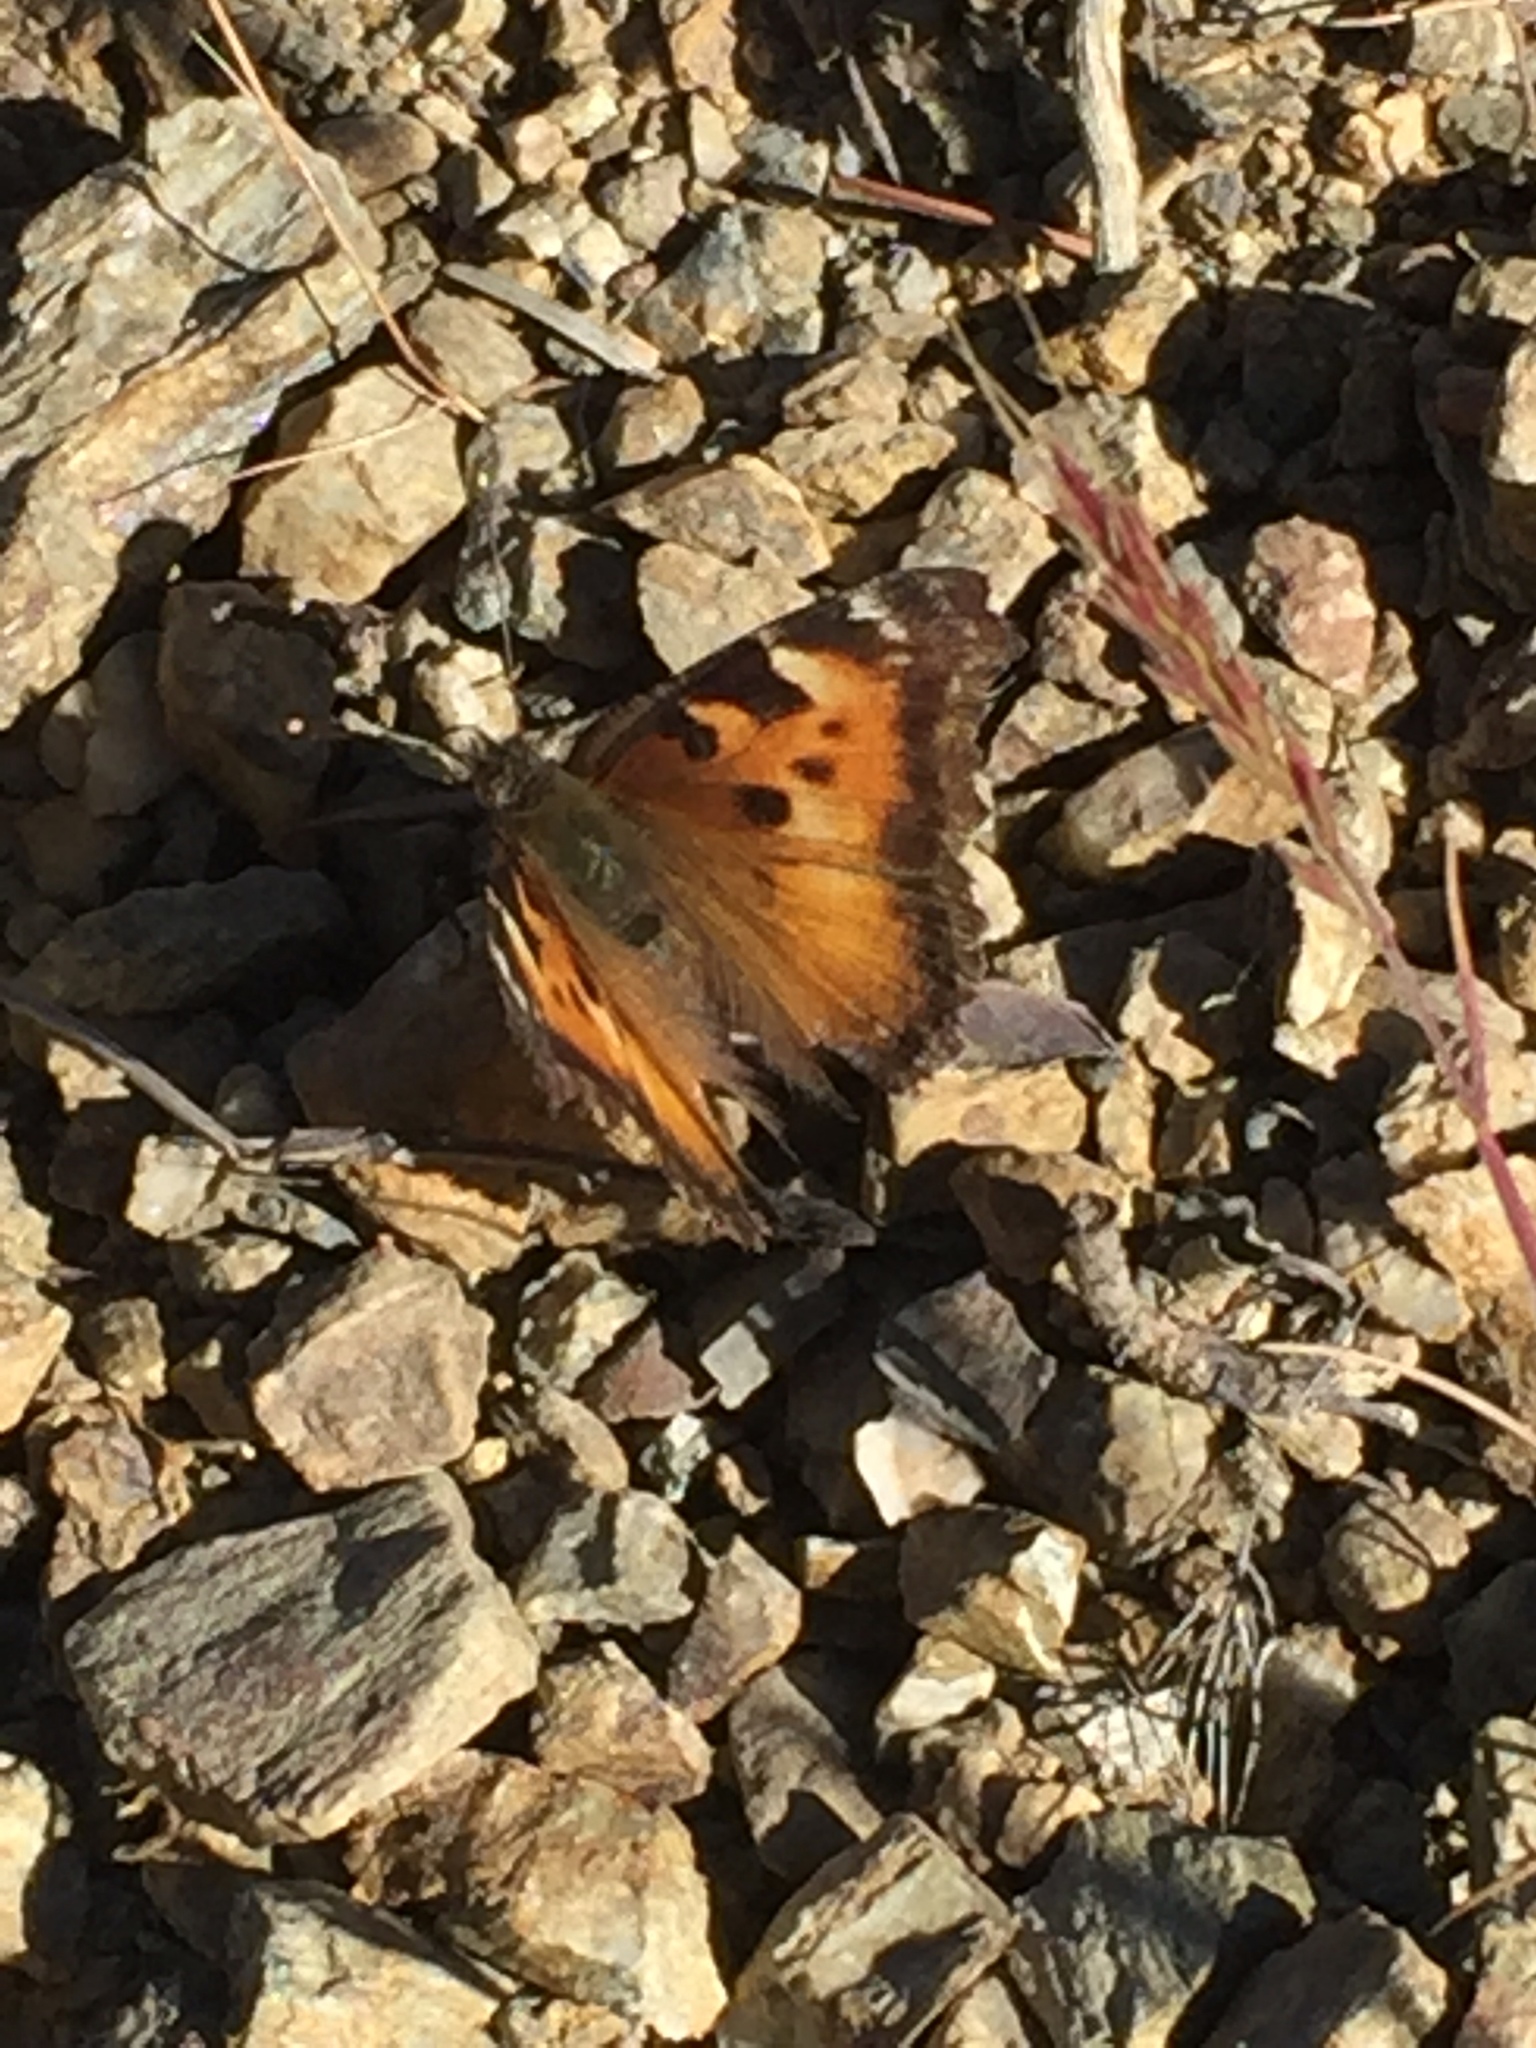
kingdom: Animalia
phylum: Arthropoda
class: Insecta
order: Lepidoptera
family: Nymphalidae
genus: Nymphalis
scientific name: Nymphalis californica
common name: California tortoiseshell
